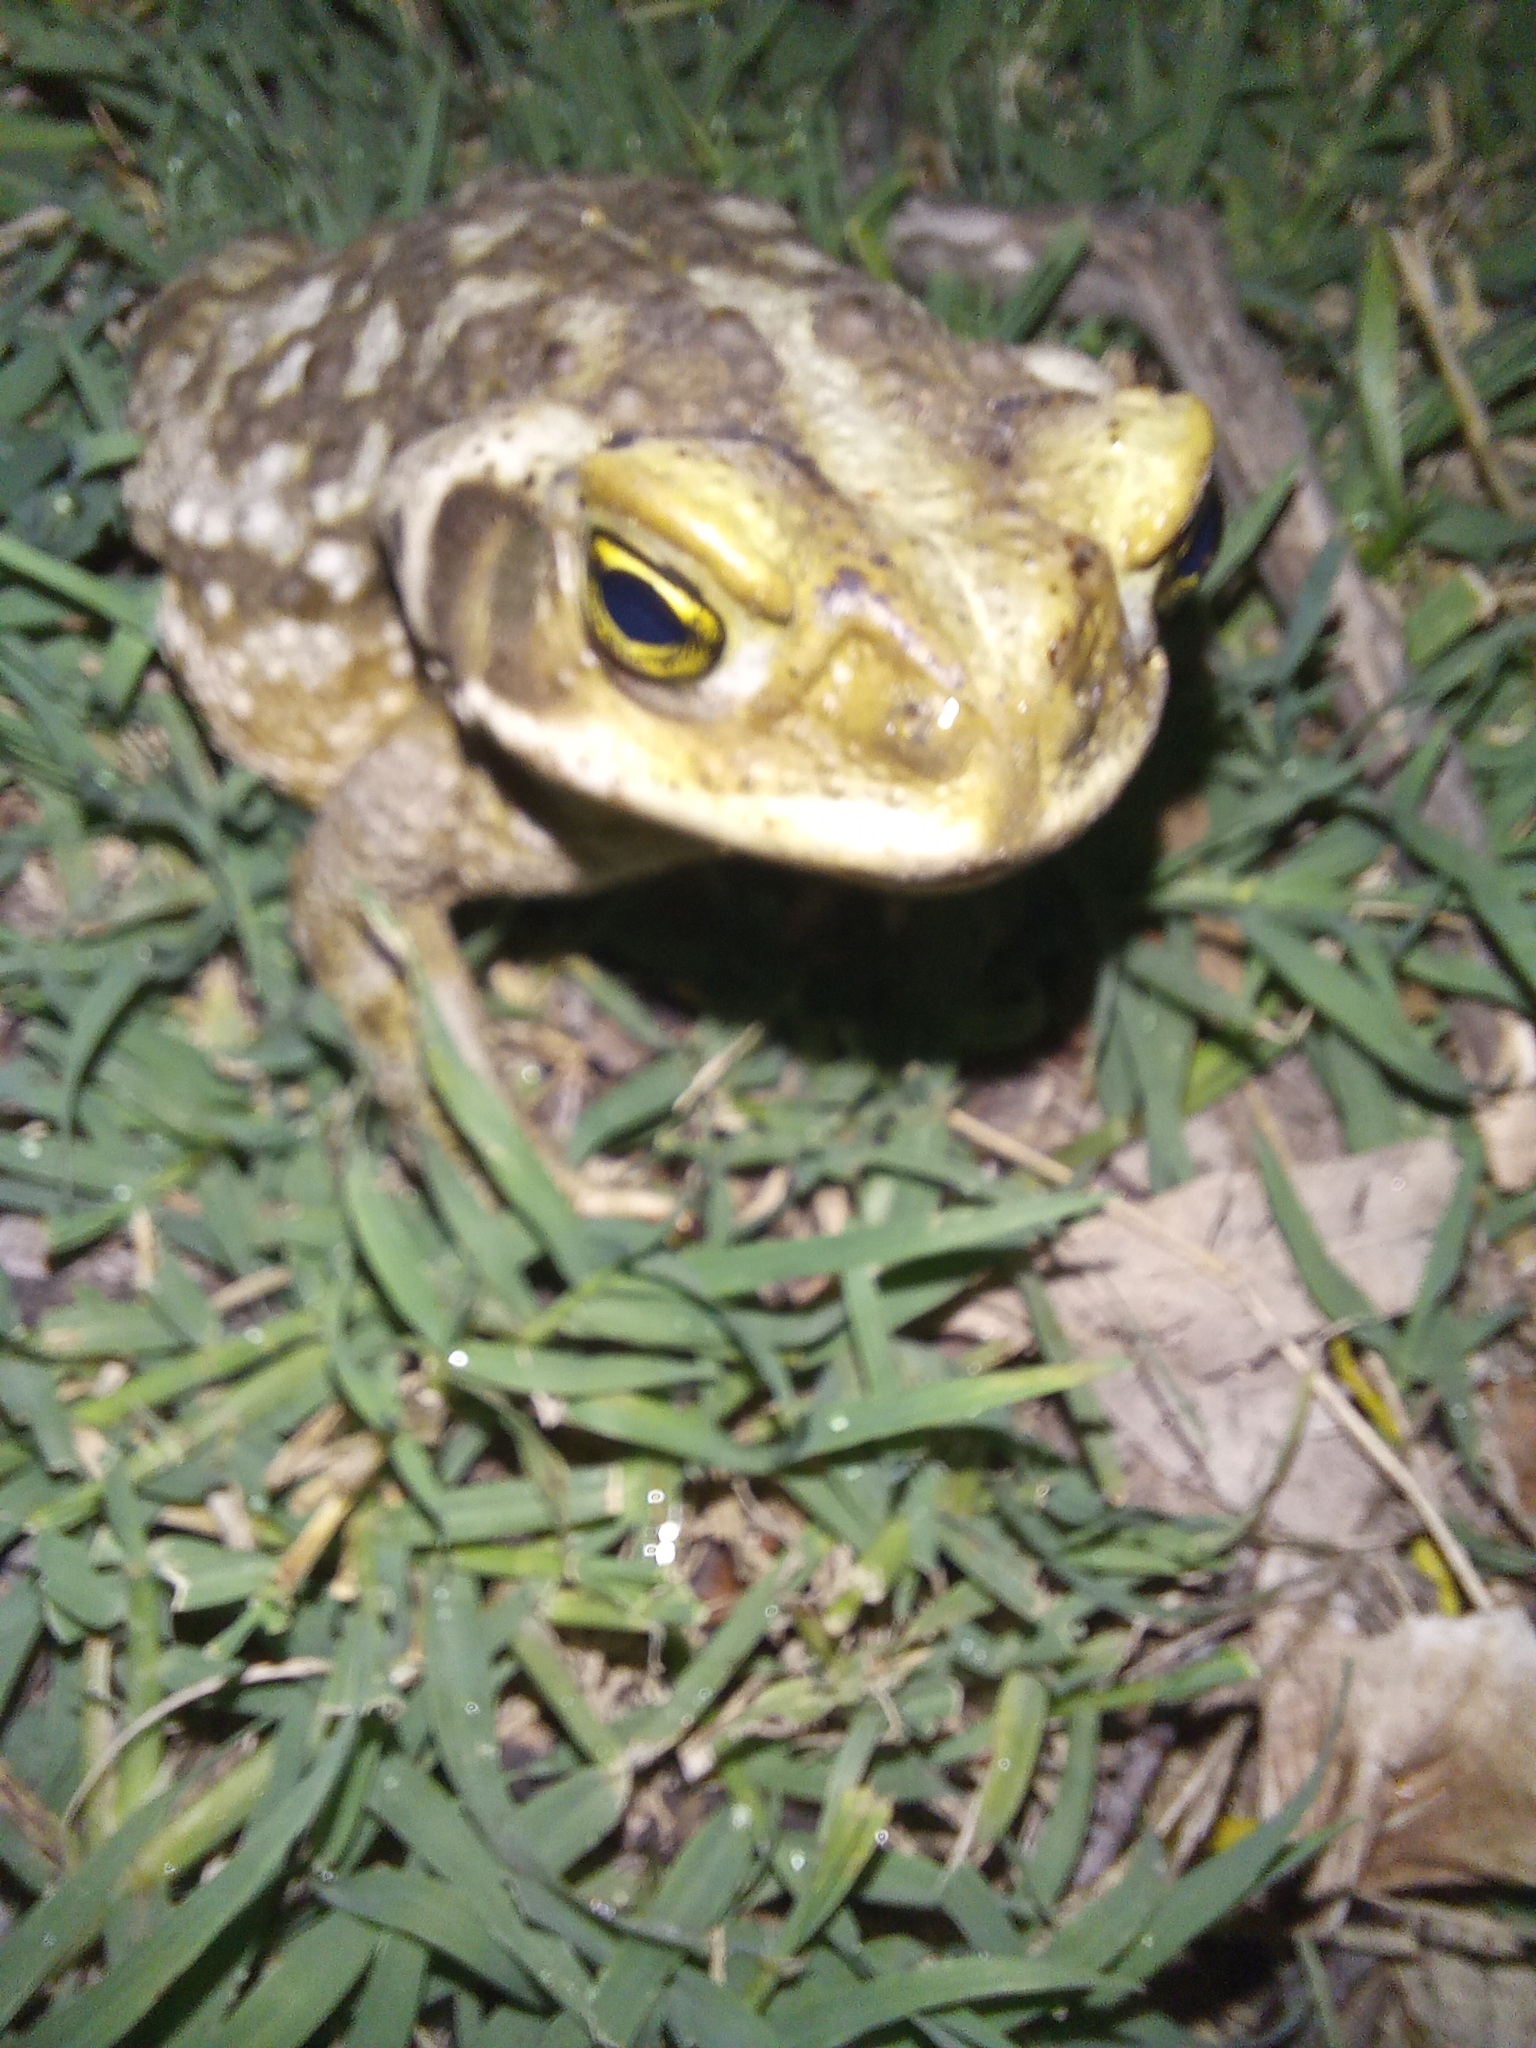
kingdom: Animalia
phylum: Chordata
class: Amphibia
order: Anura
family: Bufonidae
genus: Rhinella
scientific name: Rhinella arenarum
